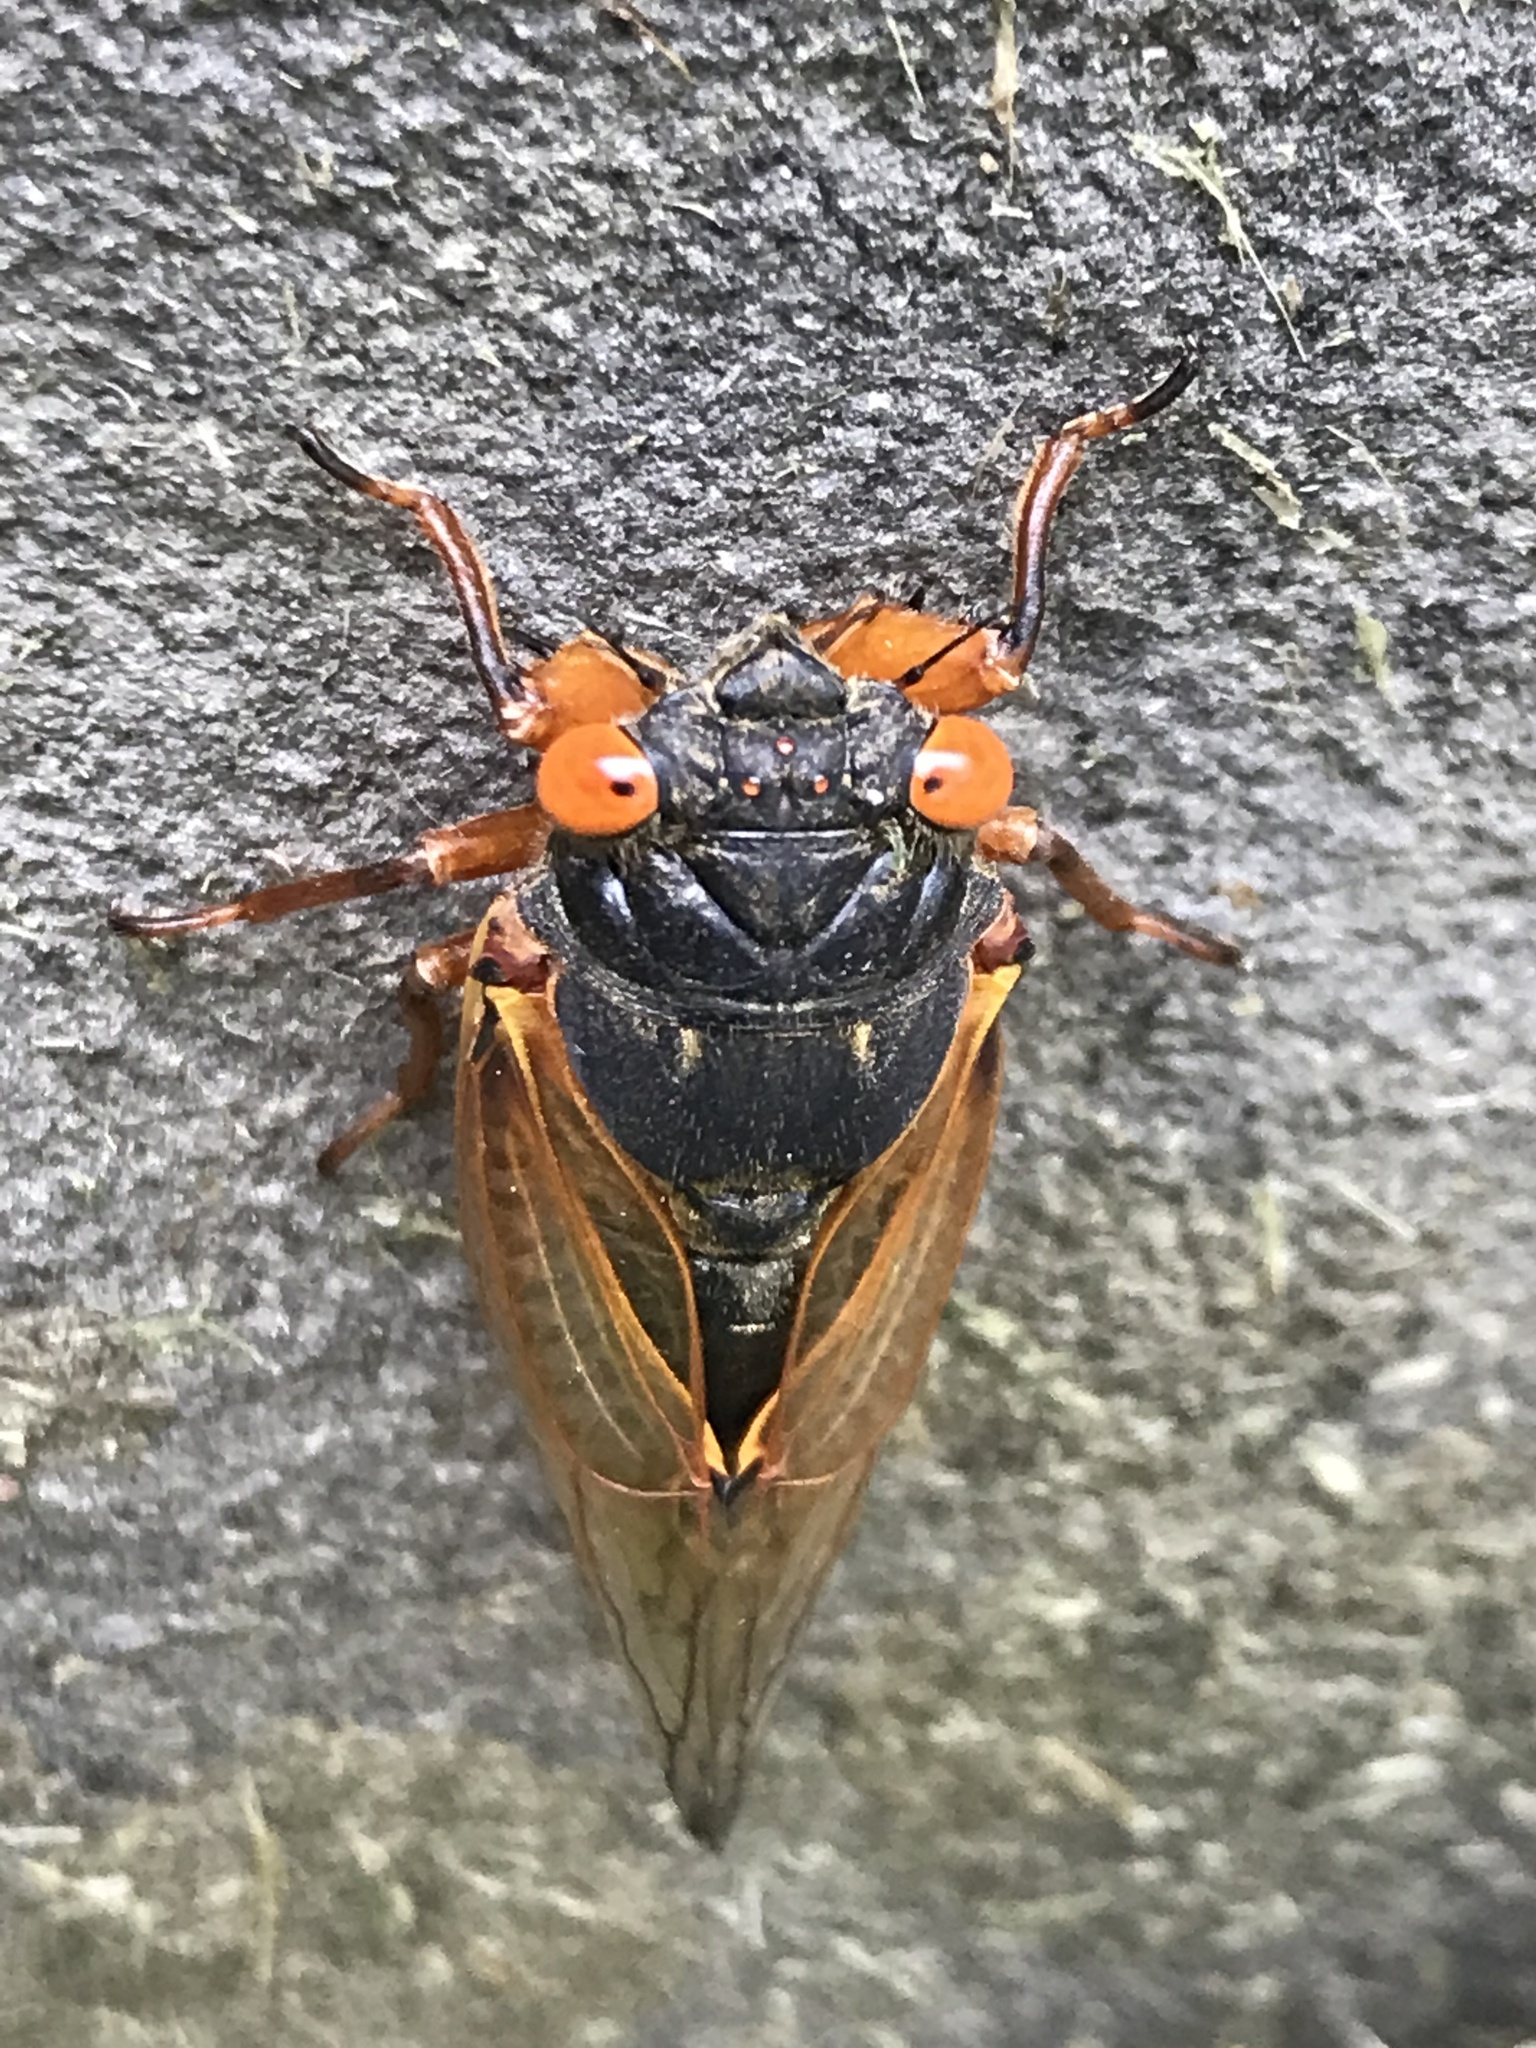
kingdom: Animalia
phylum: Arthropoda
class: Insecta
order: Hemiptera
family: Cicadidae
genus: Magicicada
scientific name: Magicicada
